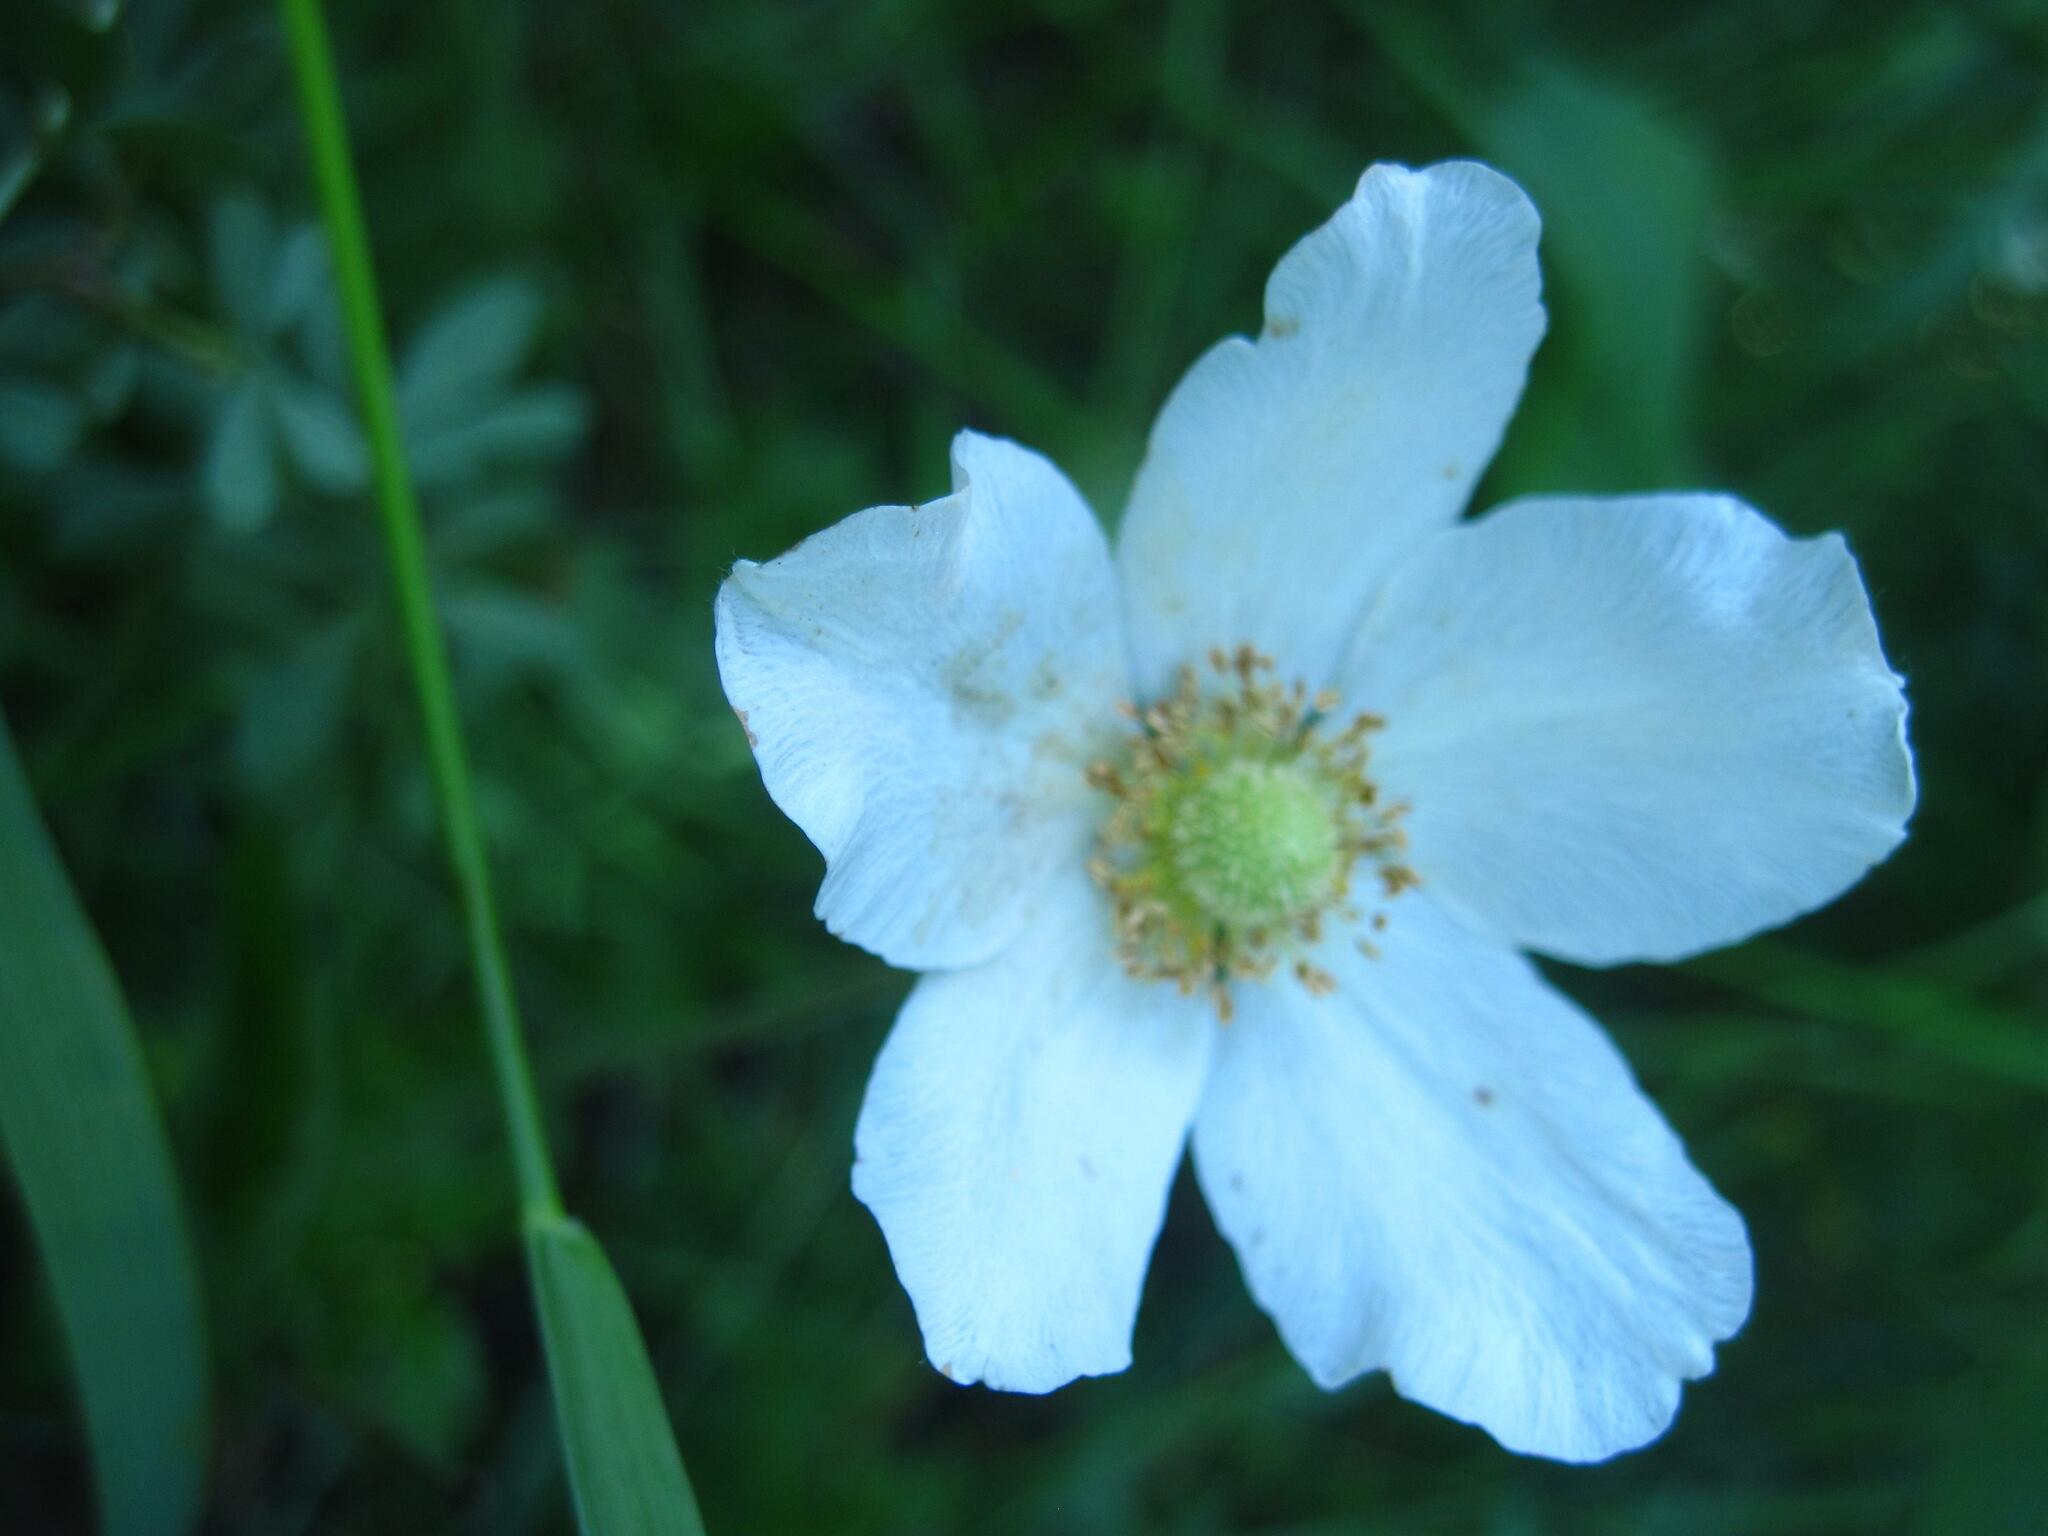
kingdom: Plantae
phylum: Tracheophyta
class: Magnoliopsida
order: Ranunculales
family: Ranunculaceae
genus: Anemone
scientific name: Anemone sylvestris
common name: Snowdrop anemone
